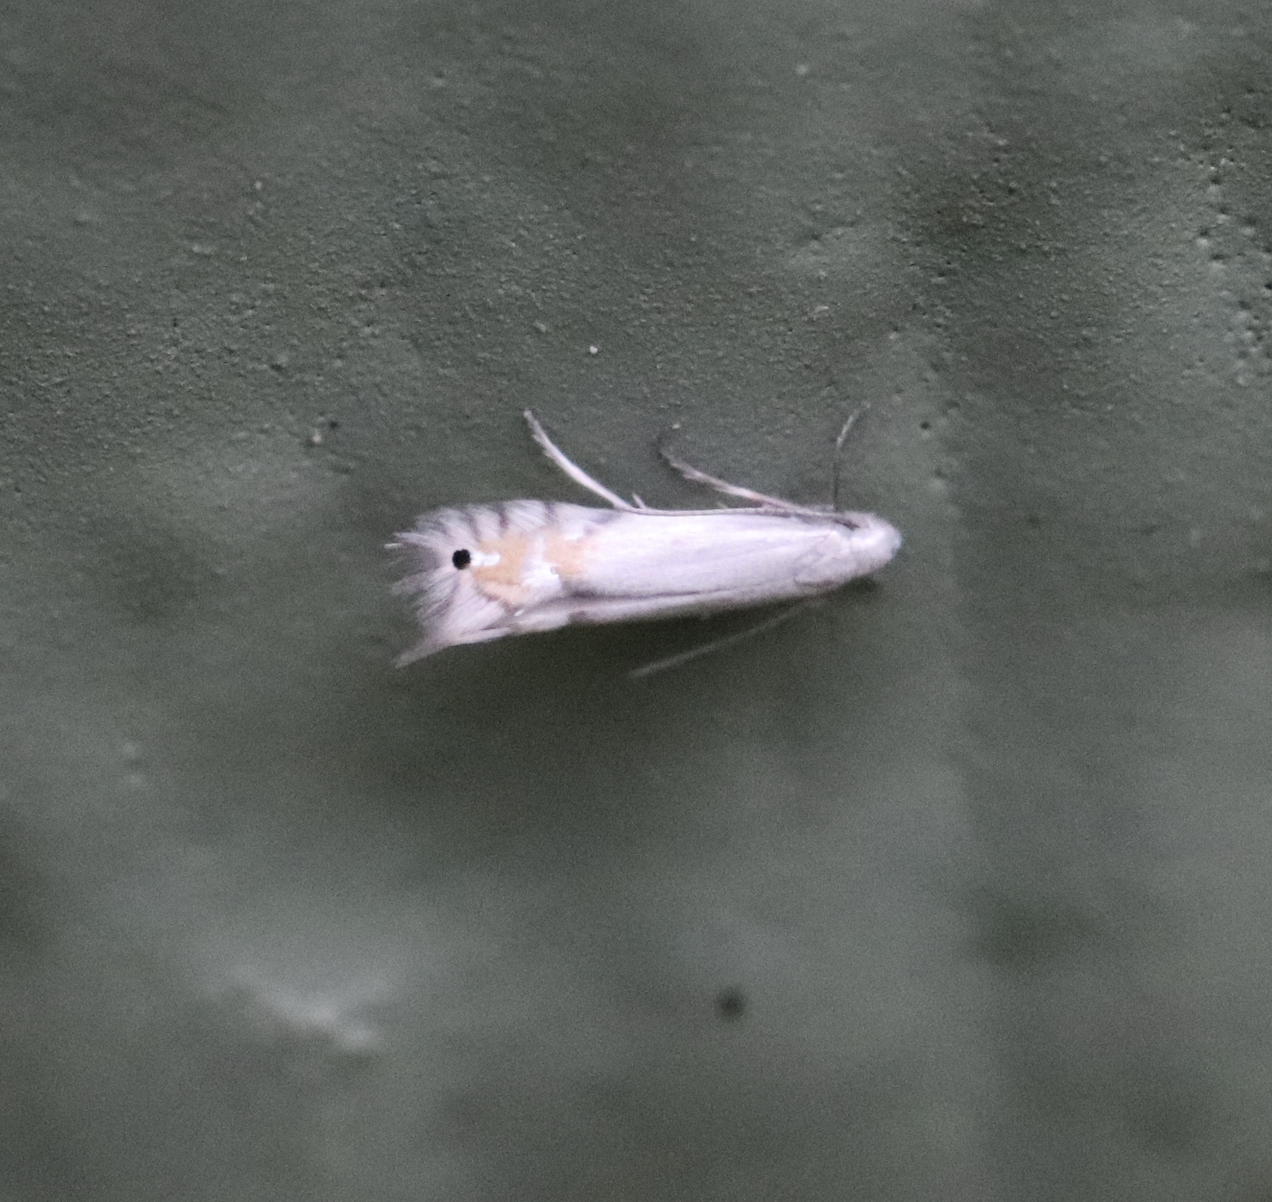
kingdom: Animalia
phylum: Arthropoda
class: Insecta
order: Lepidoptera
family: Gracillariidae
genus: Phyllocnistis
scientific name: Phyllocnistis populiella
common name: Aspen serpentine leafminer moth
